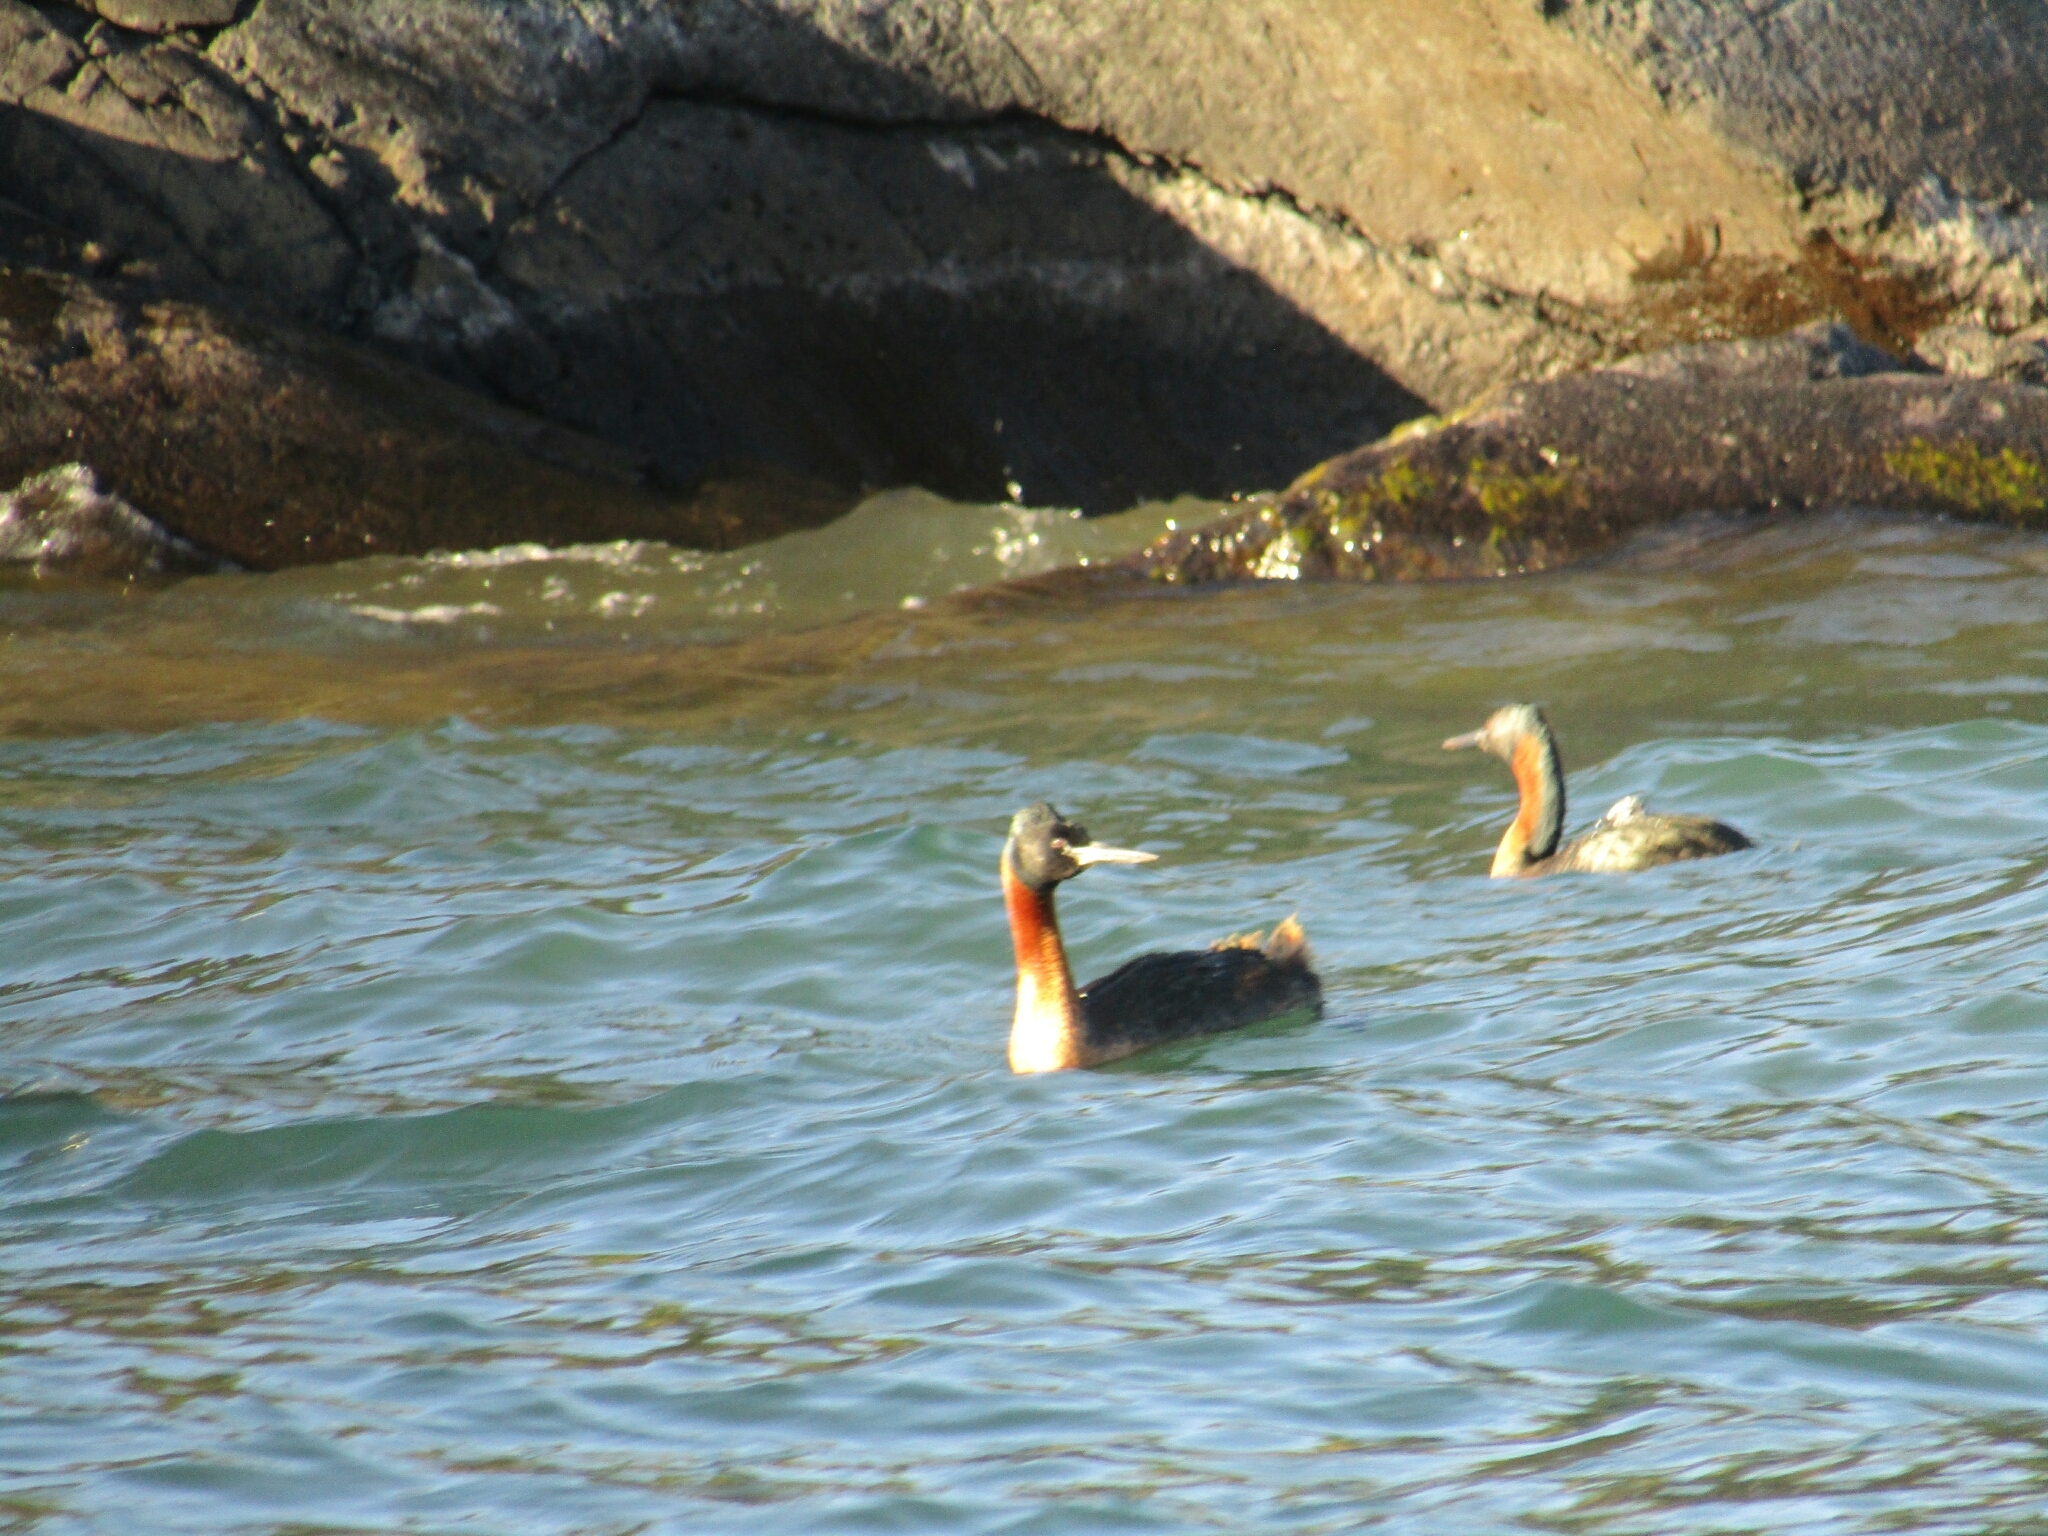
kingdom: Animalia
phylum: Chordata
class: Aves
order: Podicipediformes
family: Podicipedidae
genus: Podiceps
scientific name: Podiceps major
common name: Great grebe
